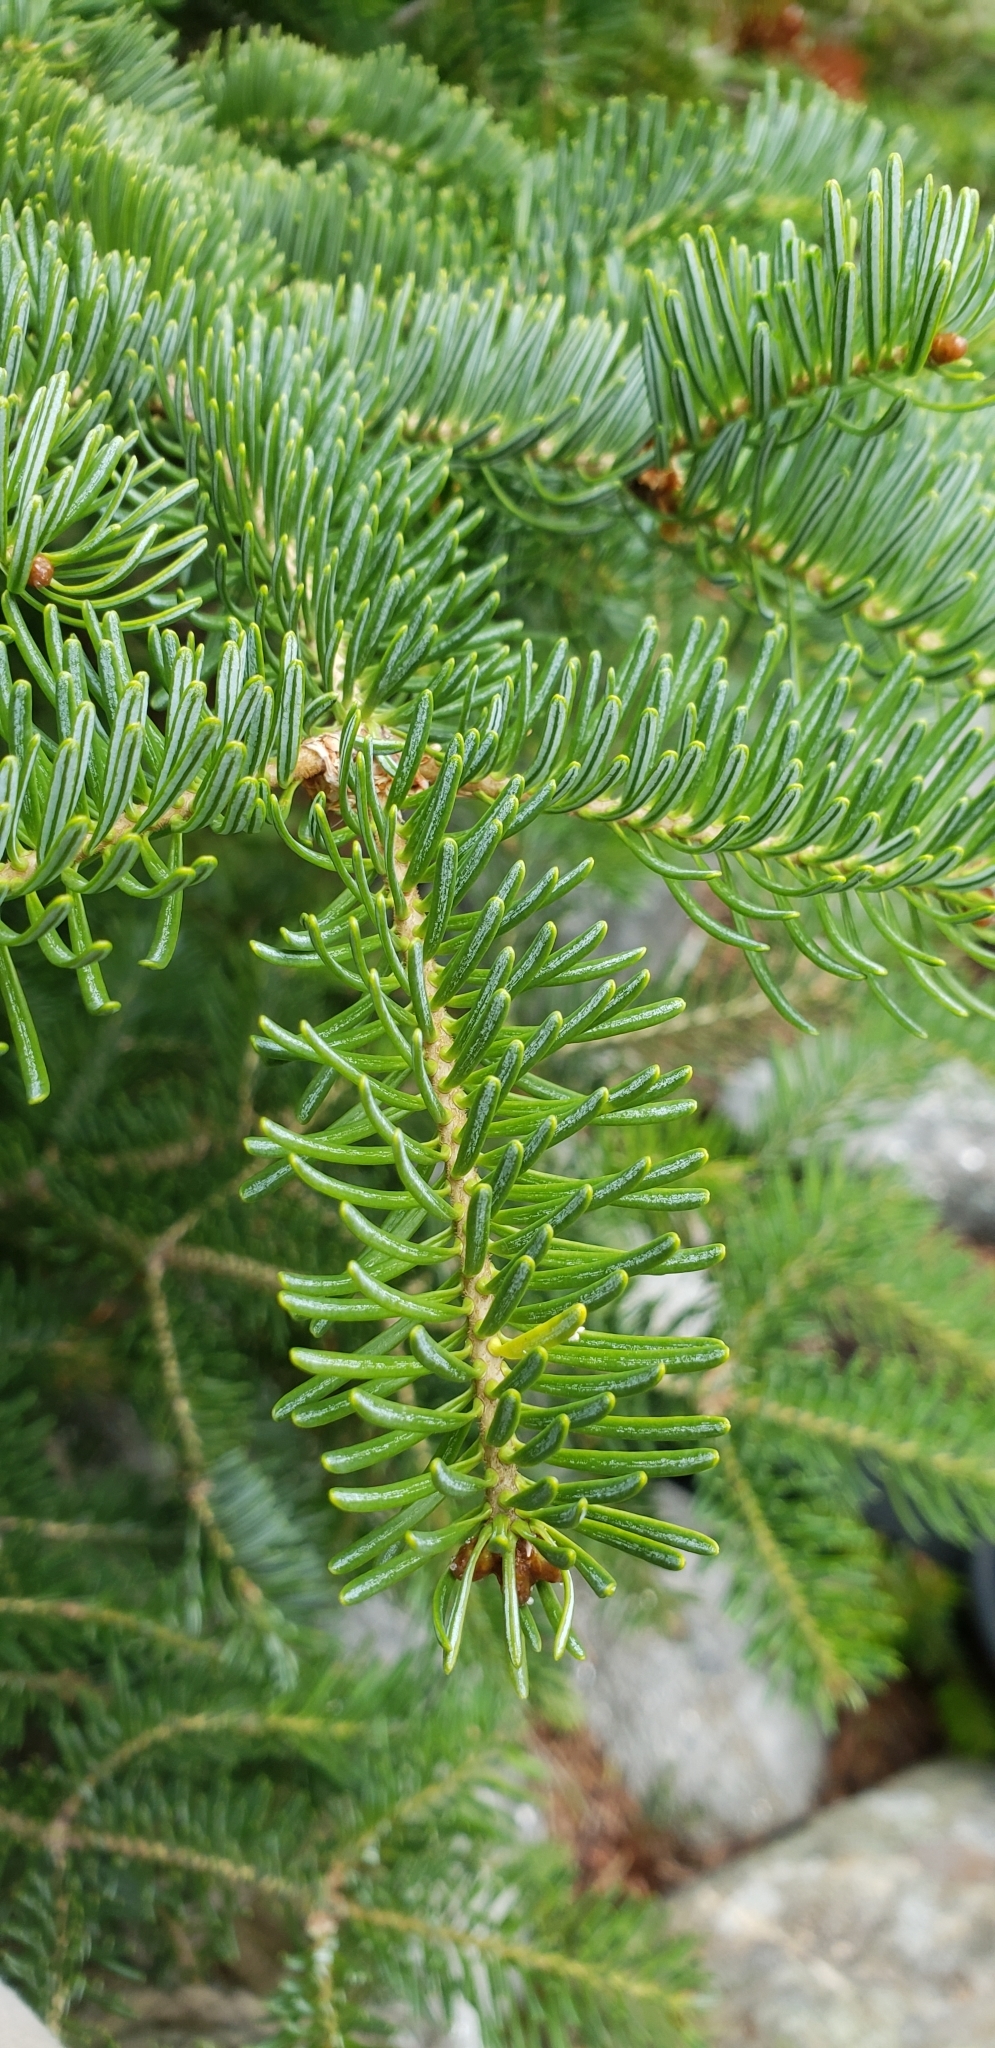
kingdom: Plantae
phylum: Tracheophyta
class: Pinopsida
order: Pinales
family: Pinaceae
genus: Abies
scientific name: Abies balsamea
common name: Balsam fir
